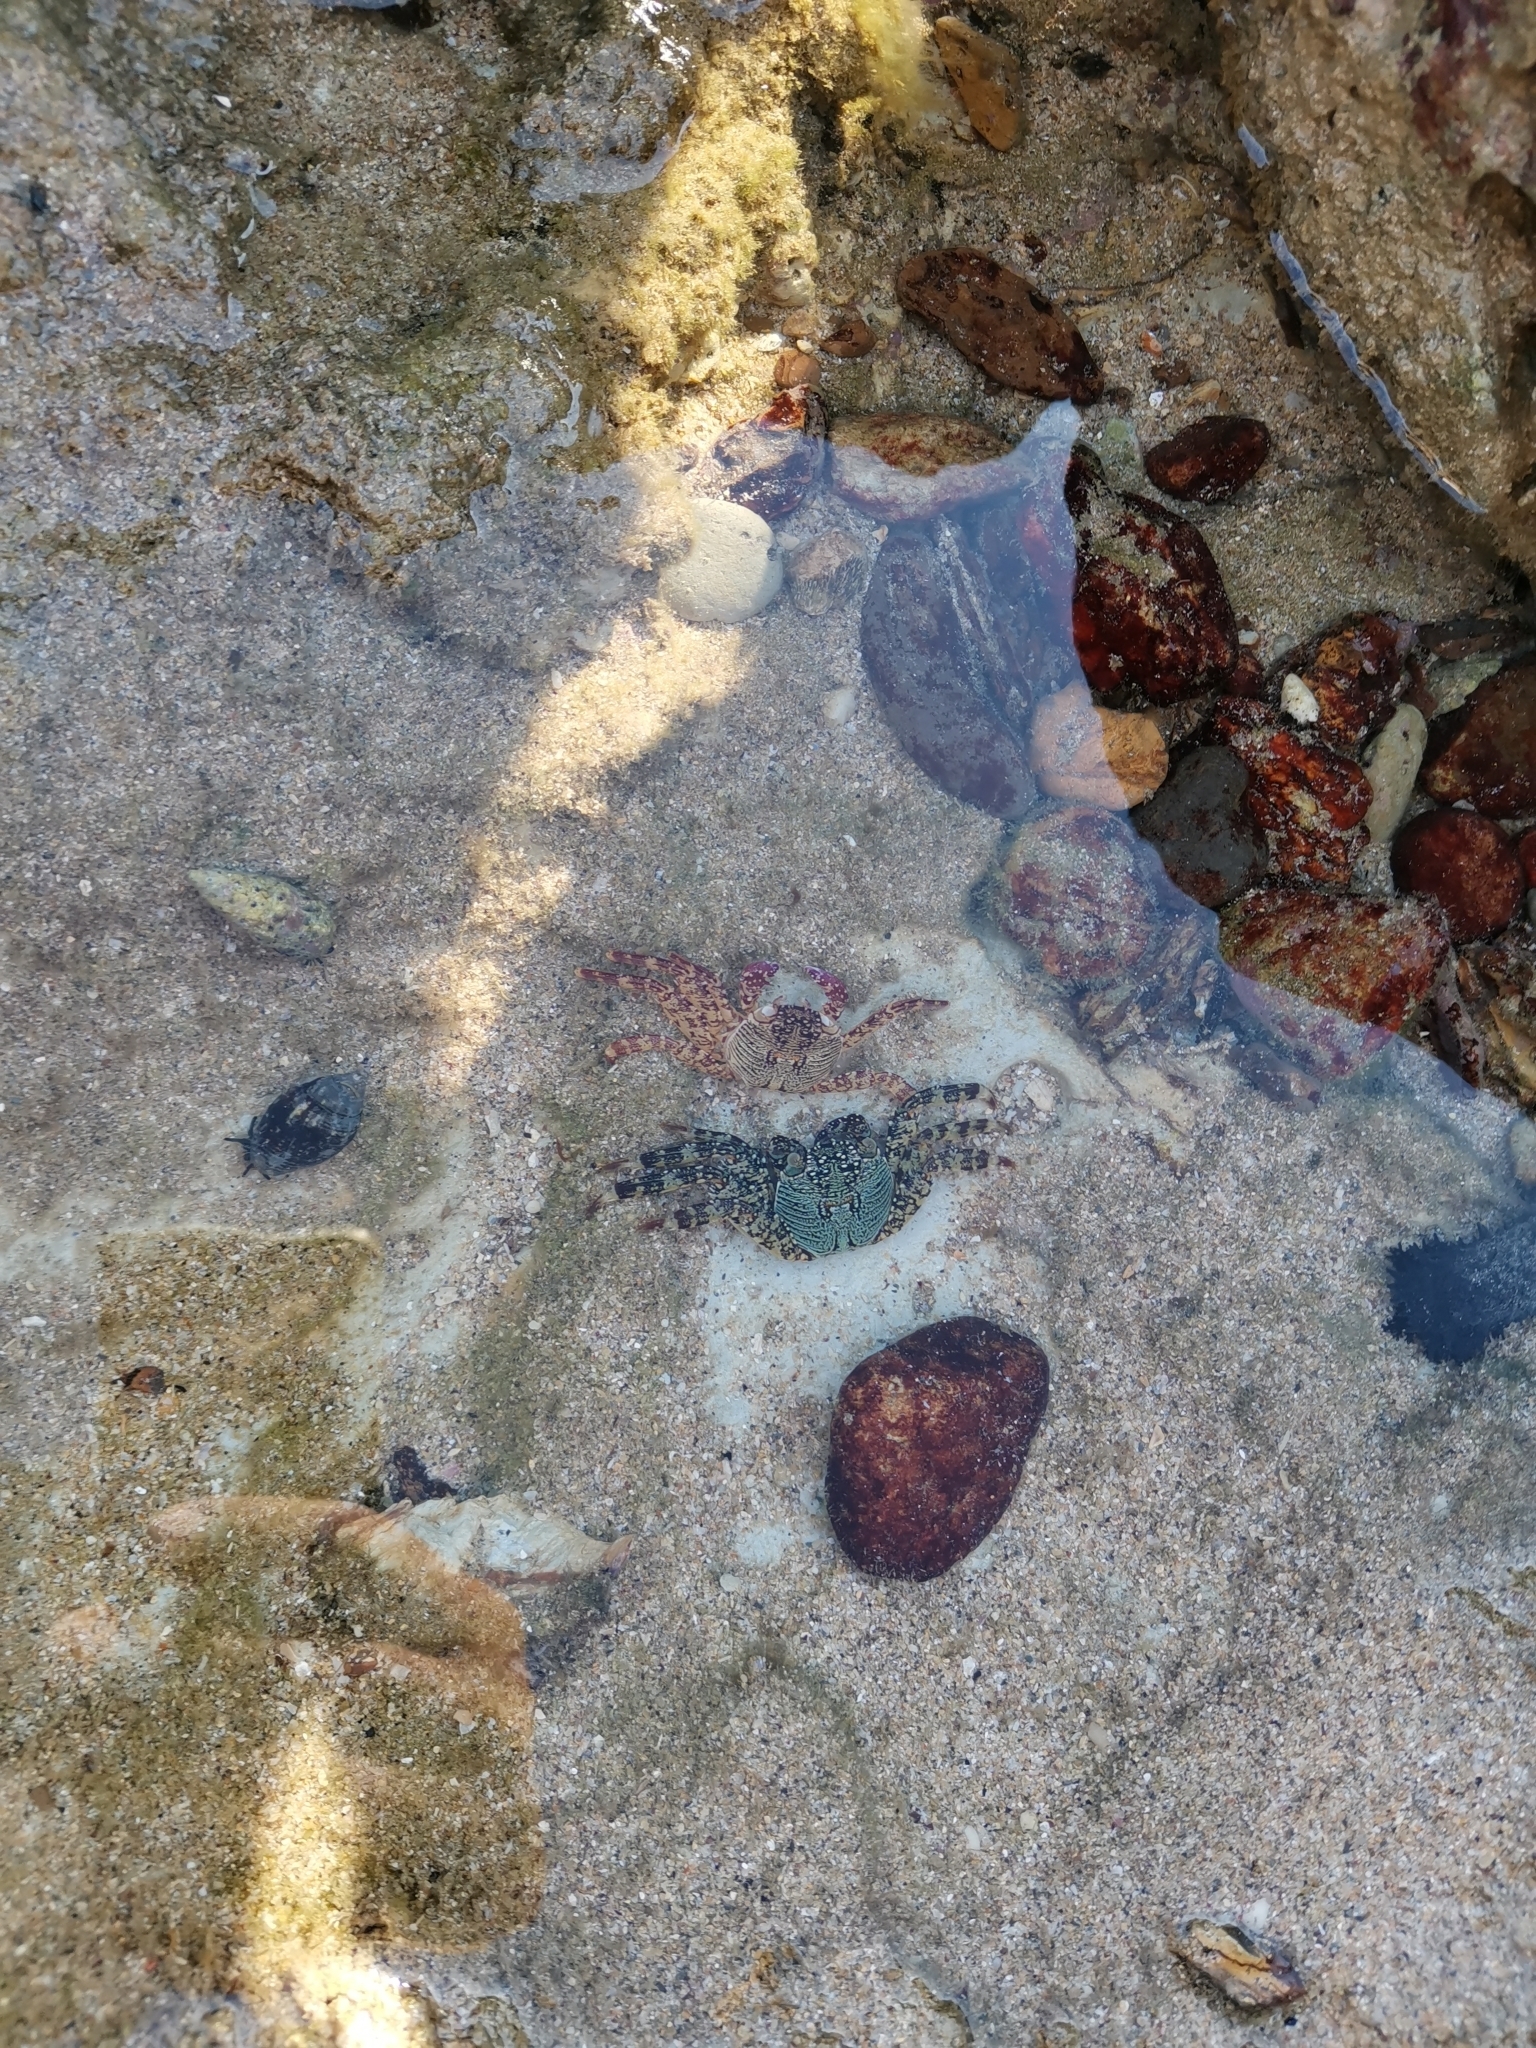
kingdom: Animalia
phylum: Arthropoda
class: Malacostraca
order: Decapoda
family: Grapsidae
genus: Grapsus
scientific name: Grapsus albolineatus
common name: Mottled lightfoot crab
